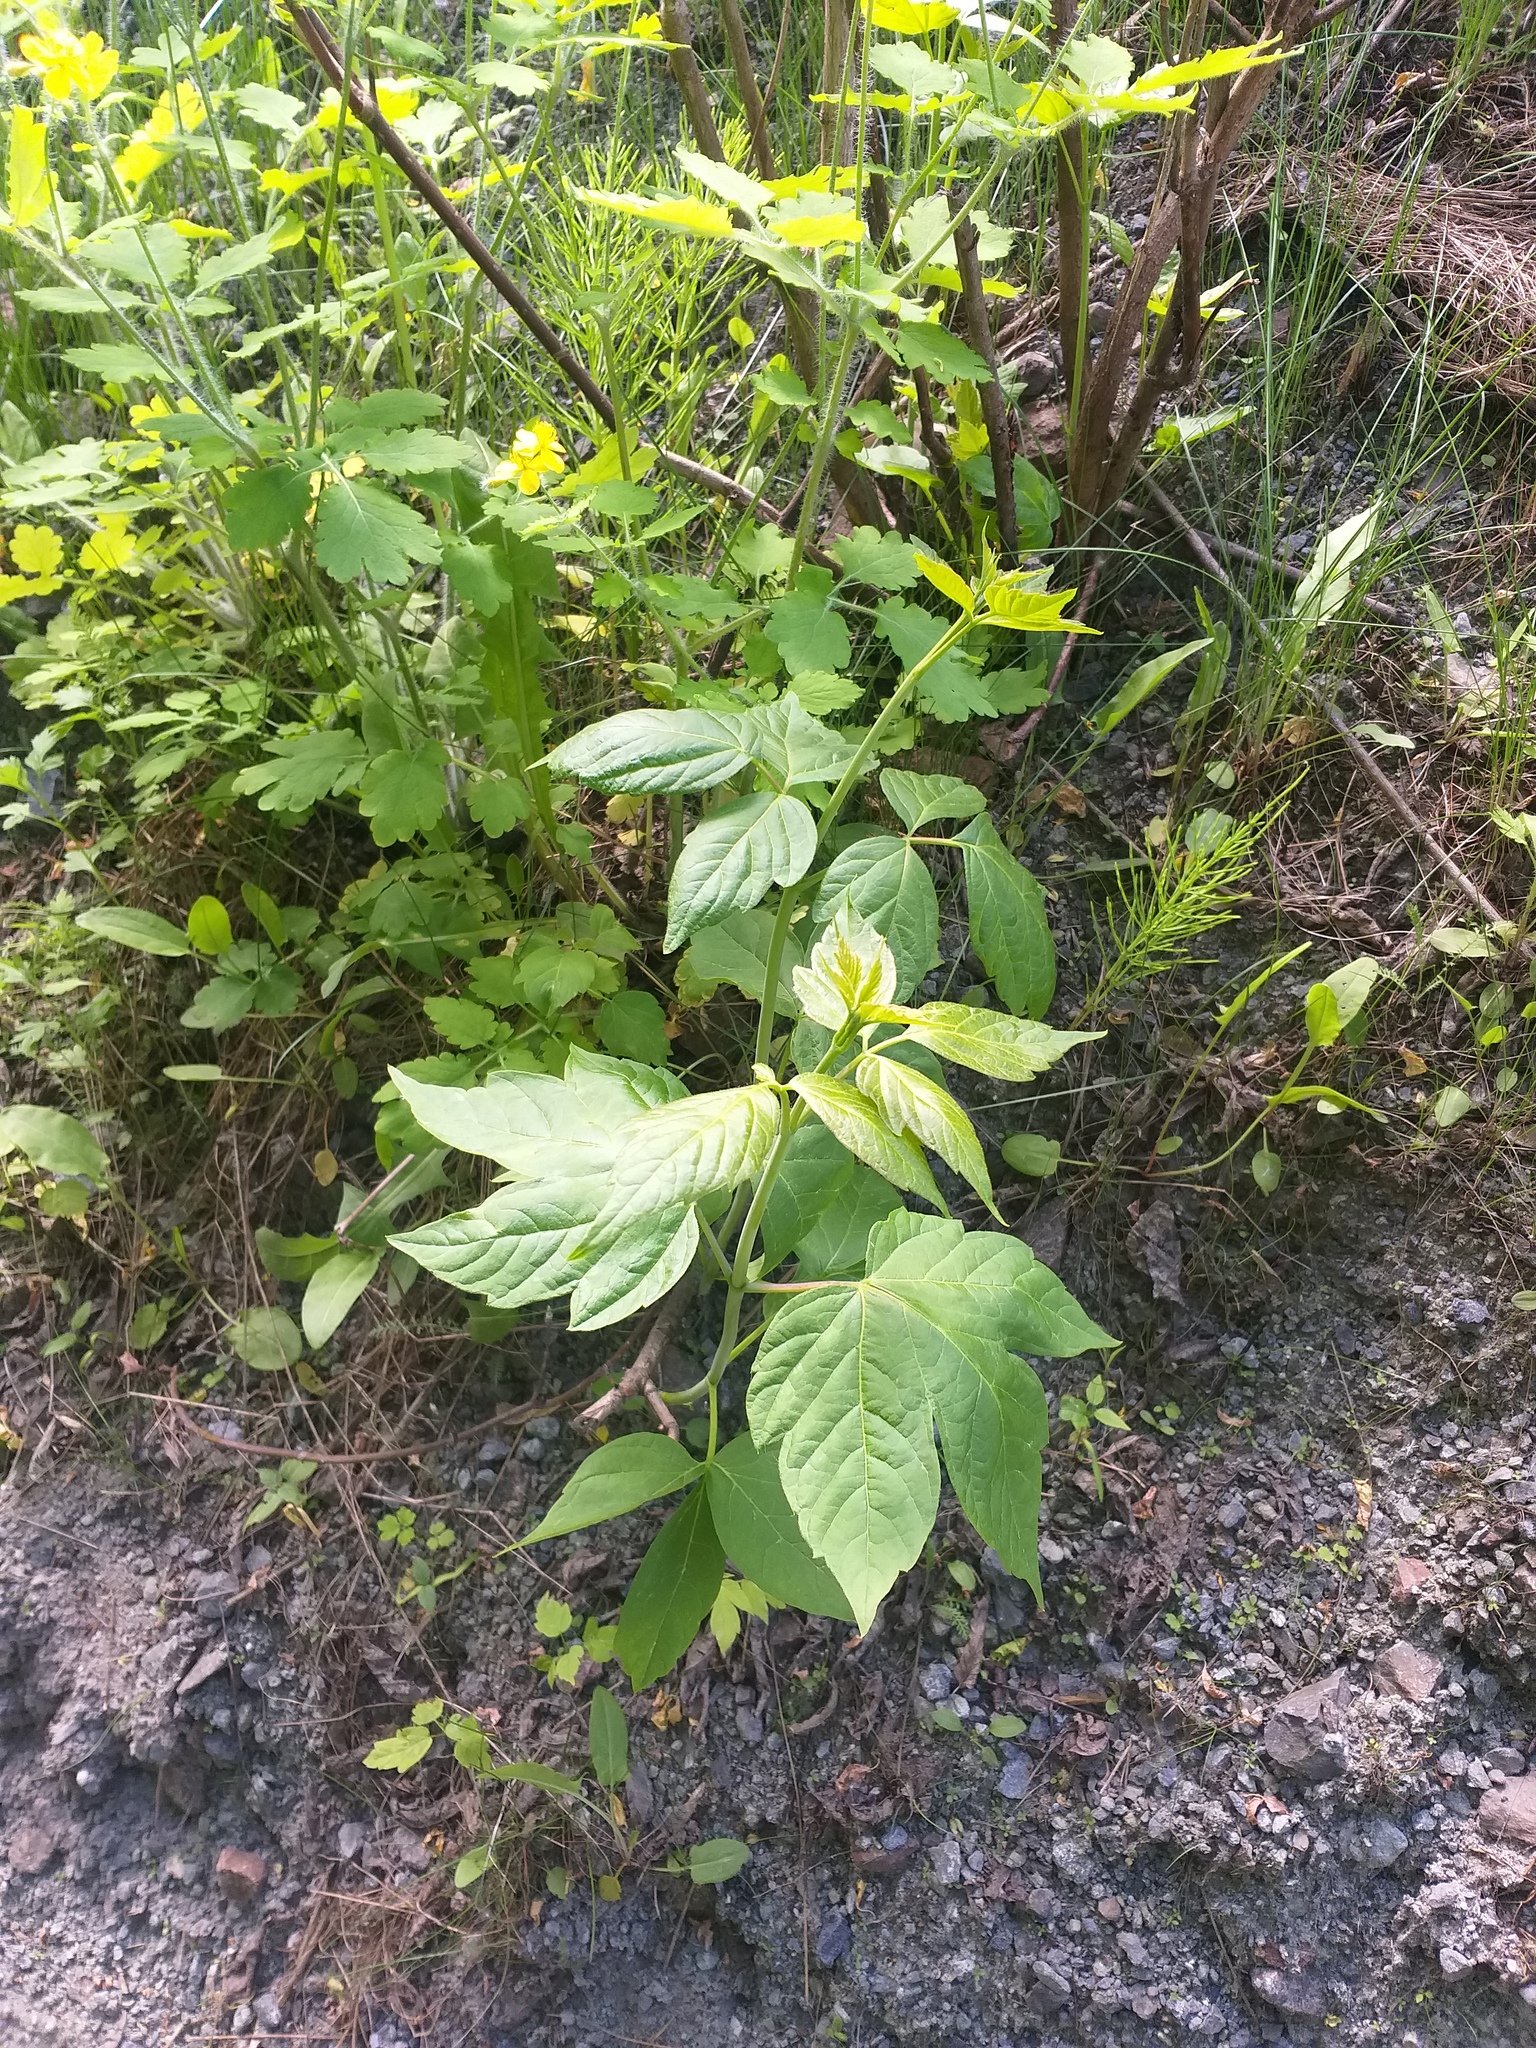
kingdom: Plantae
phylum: Tracheophyta
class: Magnoliopsida
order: Sapindales
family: Sapindaceae
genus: Acer
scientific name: Acer negundo
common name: Ashleaf maple
